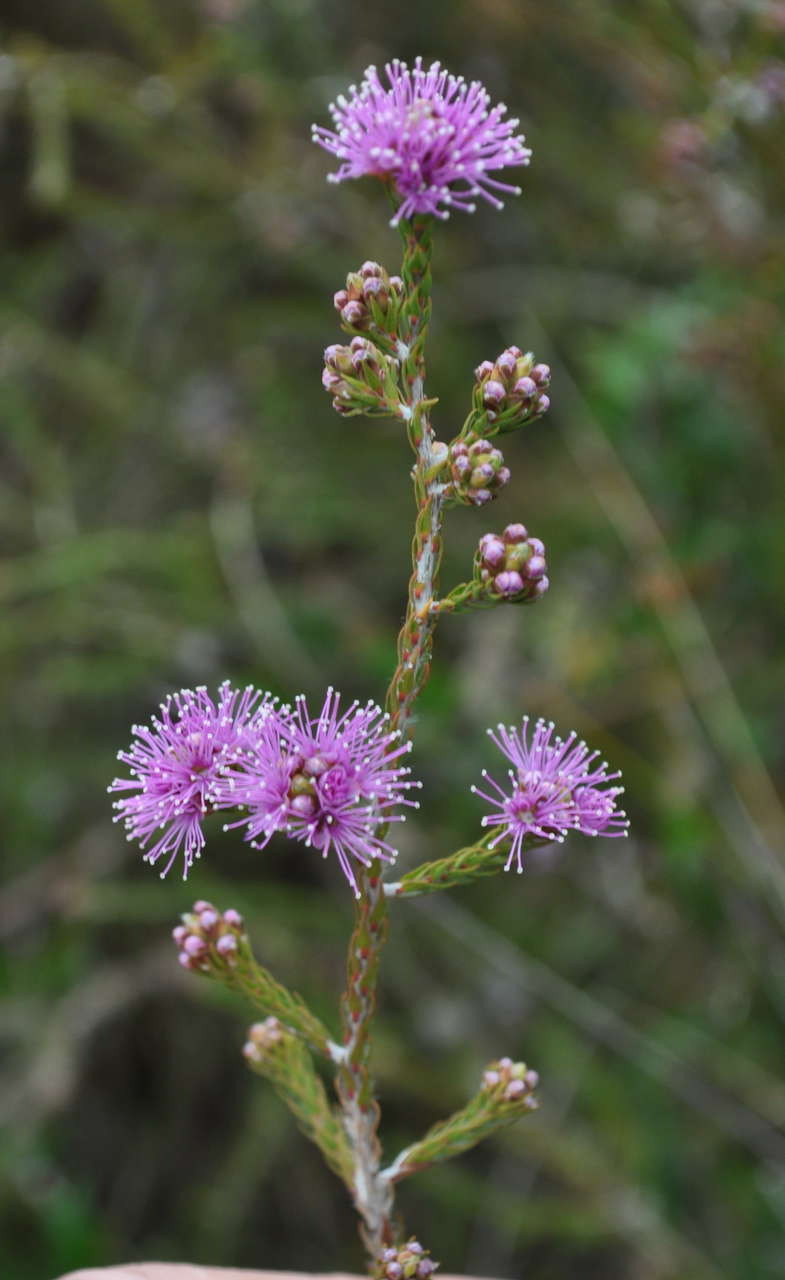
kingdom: Plantae
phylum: Tracheophyta
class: Magnoliopsida
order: Myrtales
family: Myrtaceae
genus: Melaleuca
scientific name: Melaleuca squamea
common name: Swamp melaleuca
